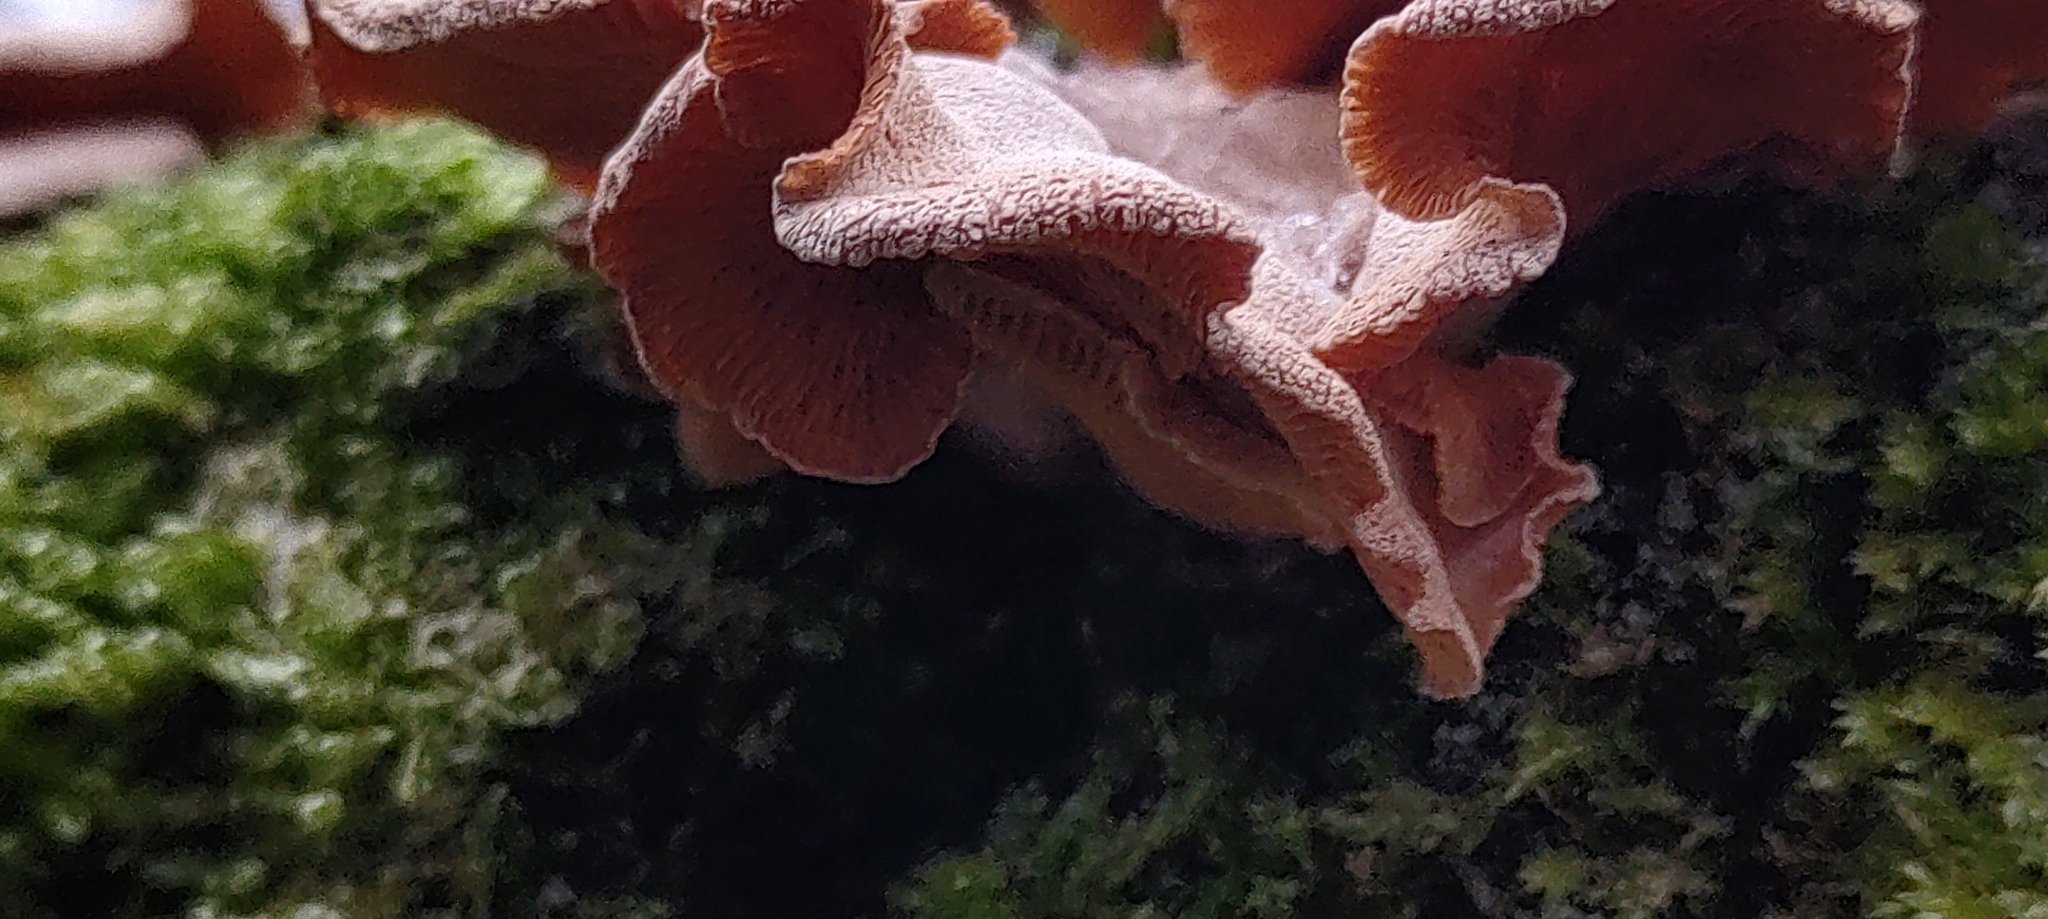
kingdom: Fungi
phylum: Basidiomycota
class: Agaricomycetes
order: Agaricales
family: Mycenaceae
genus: Panellus
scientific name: Panellus stipticus
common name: Bitter oysterling
